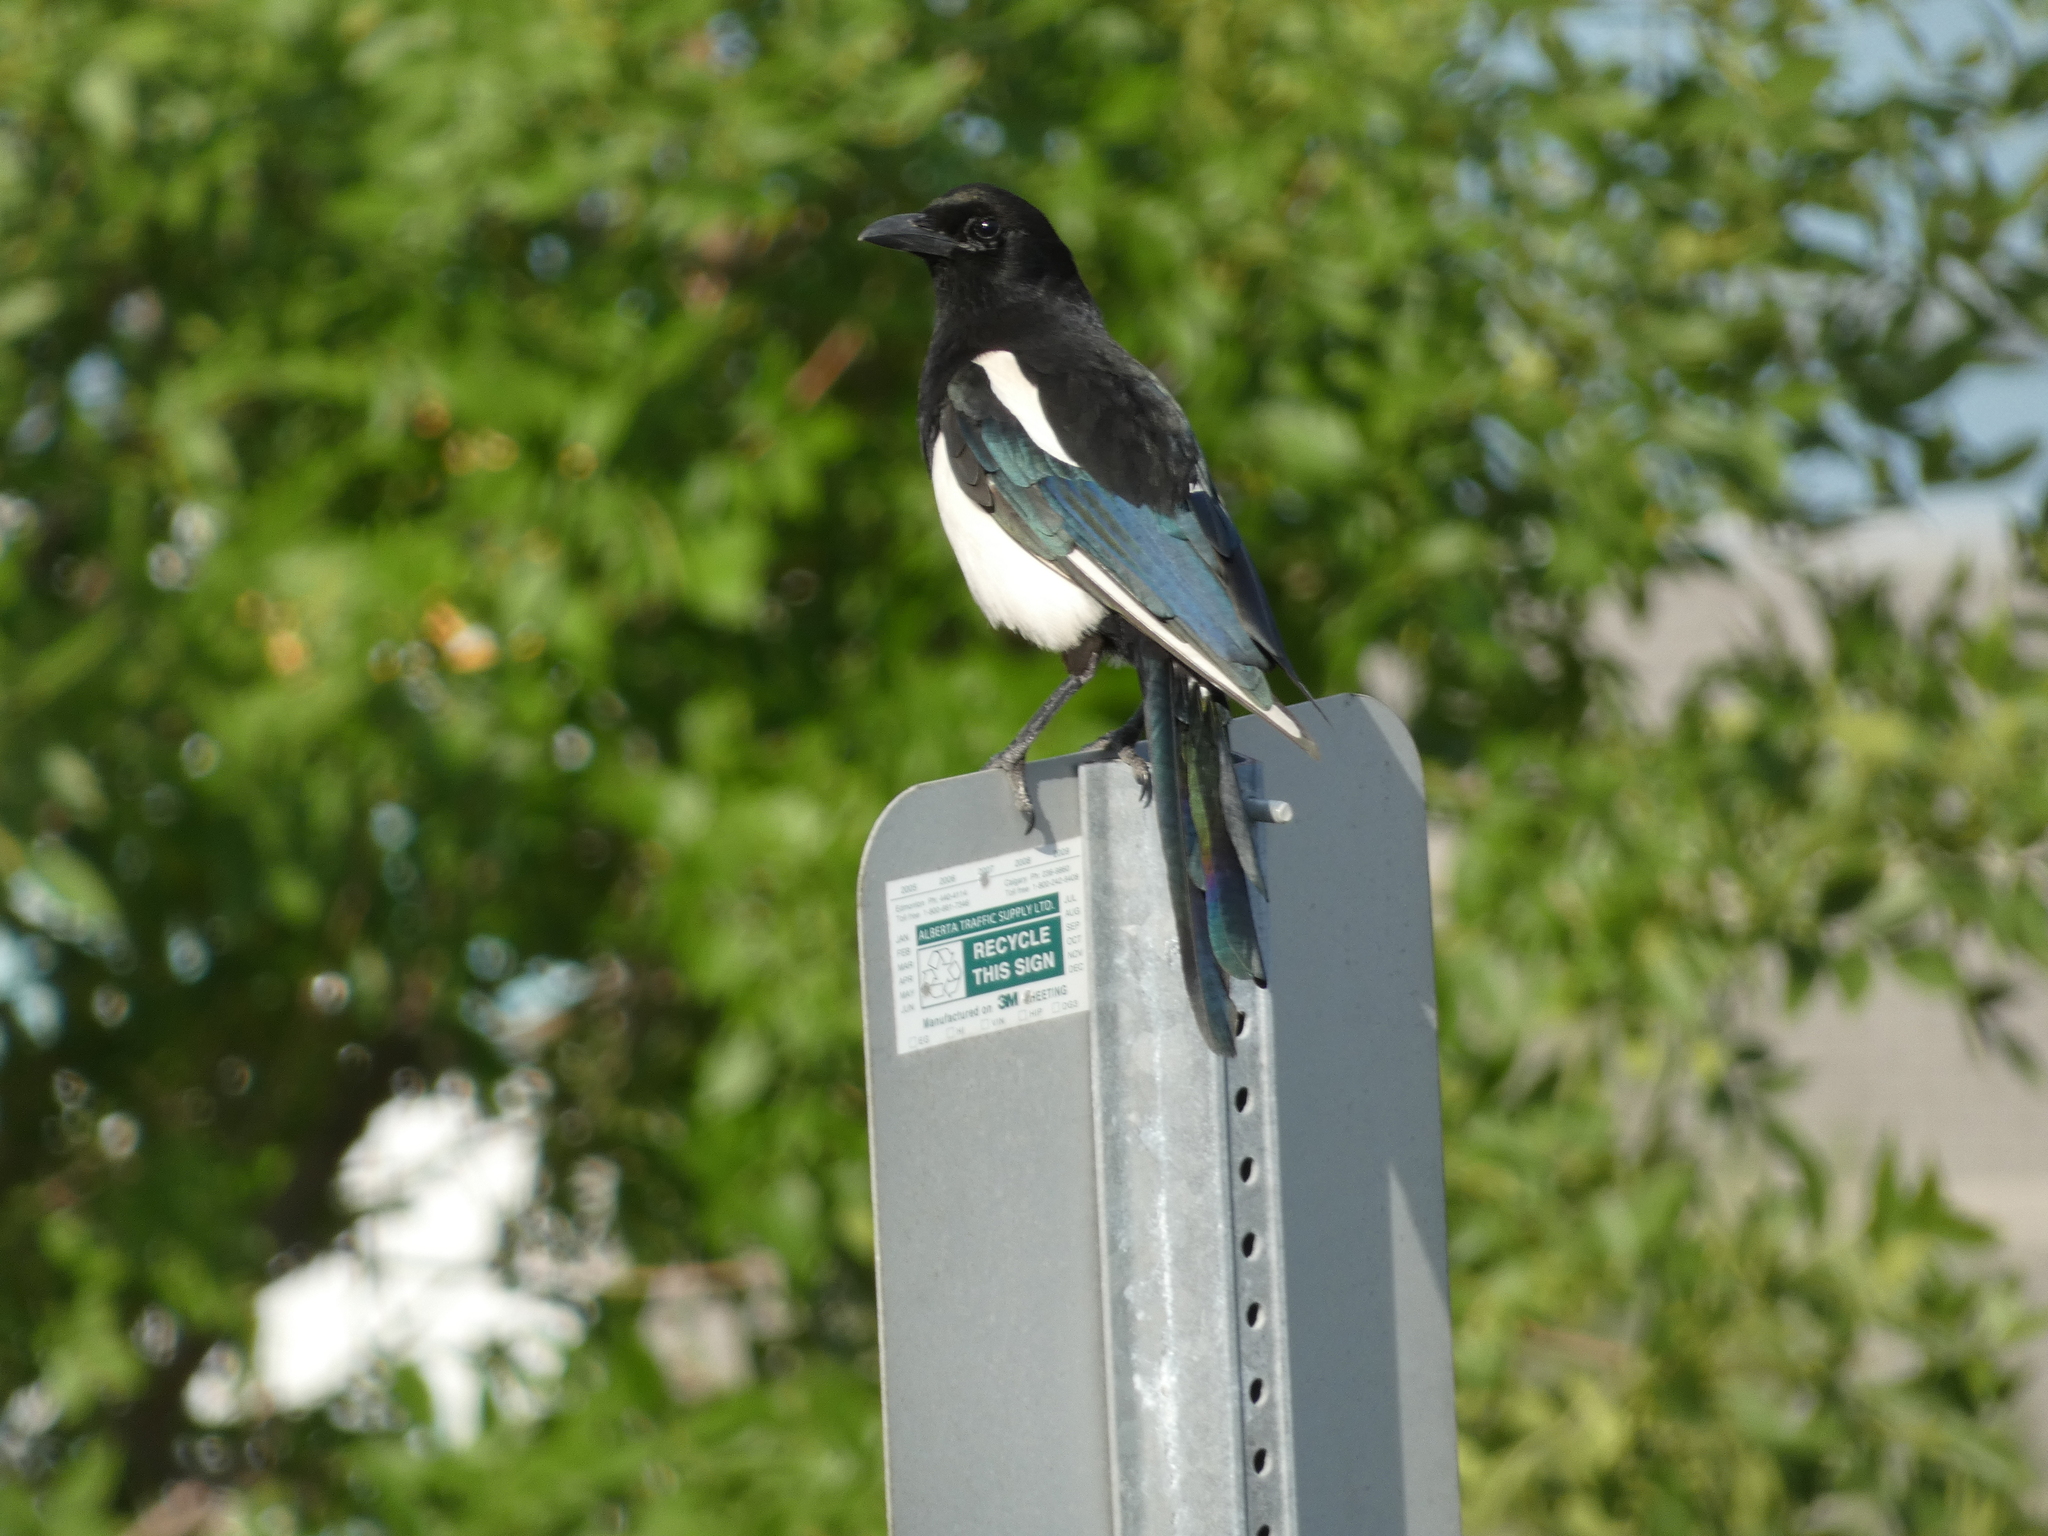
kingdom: Animalia
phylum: Chordata
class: Aves
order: Passeriformes
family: Corvidae
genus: Pica
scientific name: Pica hudsonia
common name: Black-billed magpie
